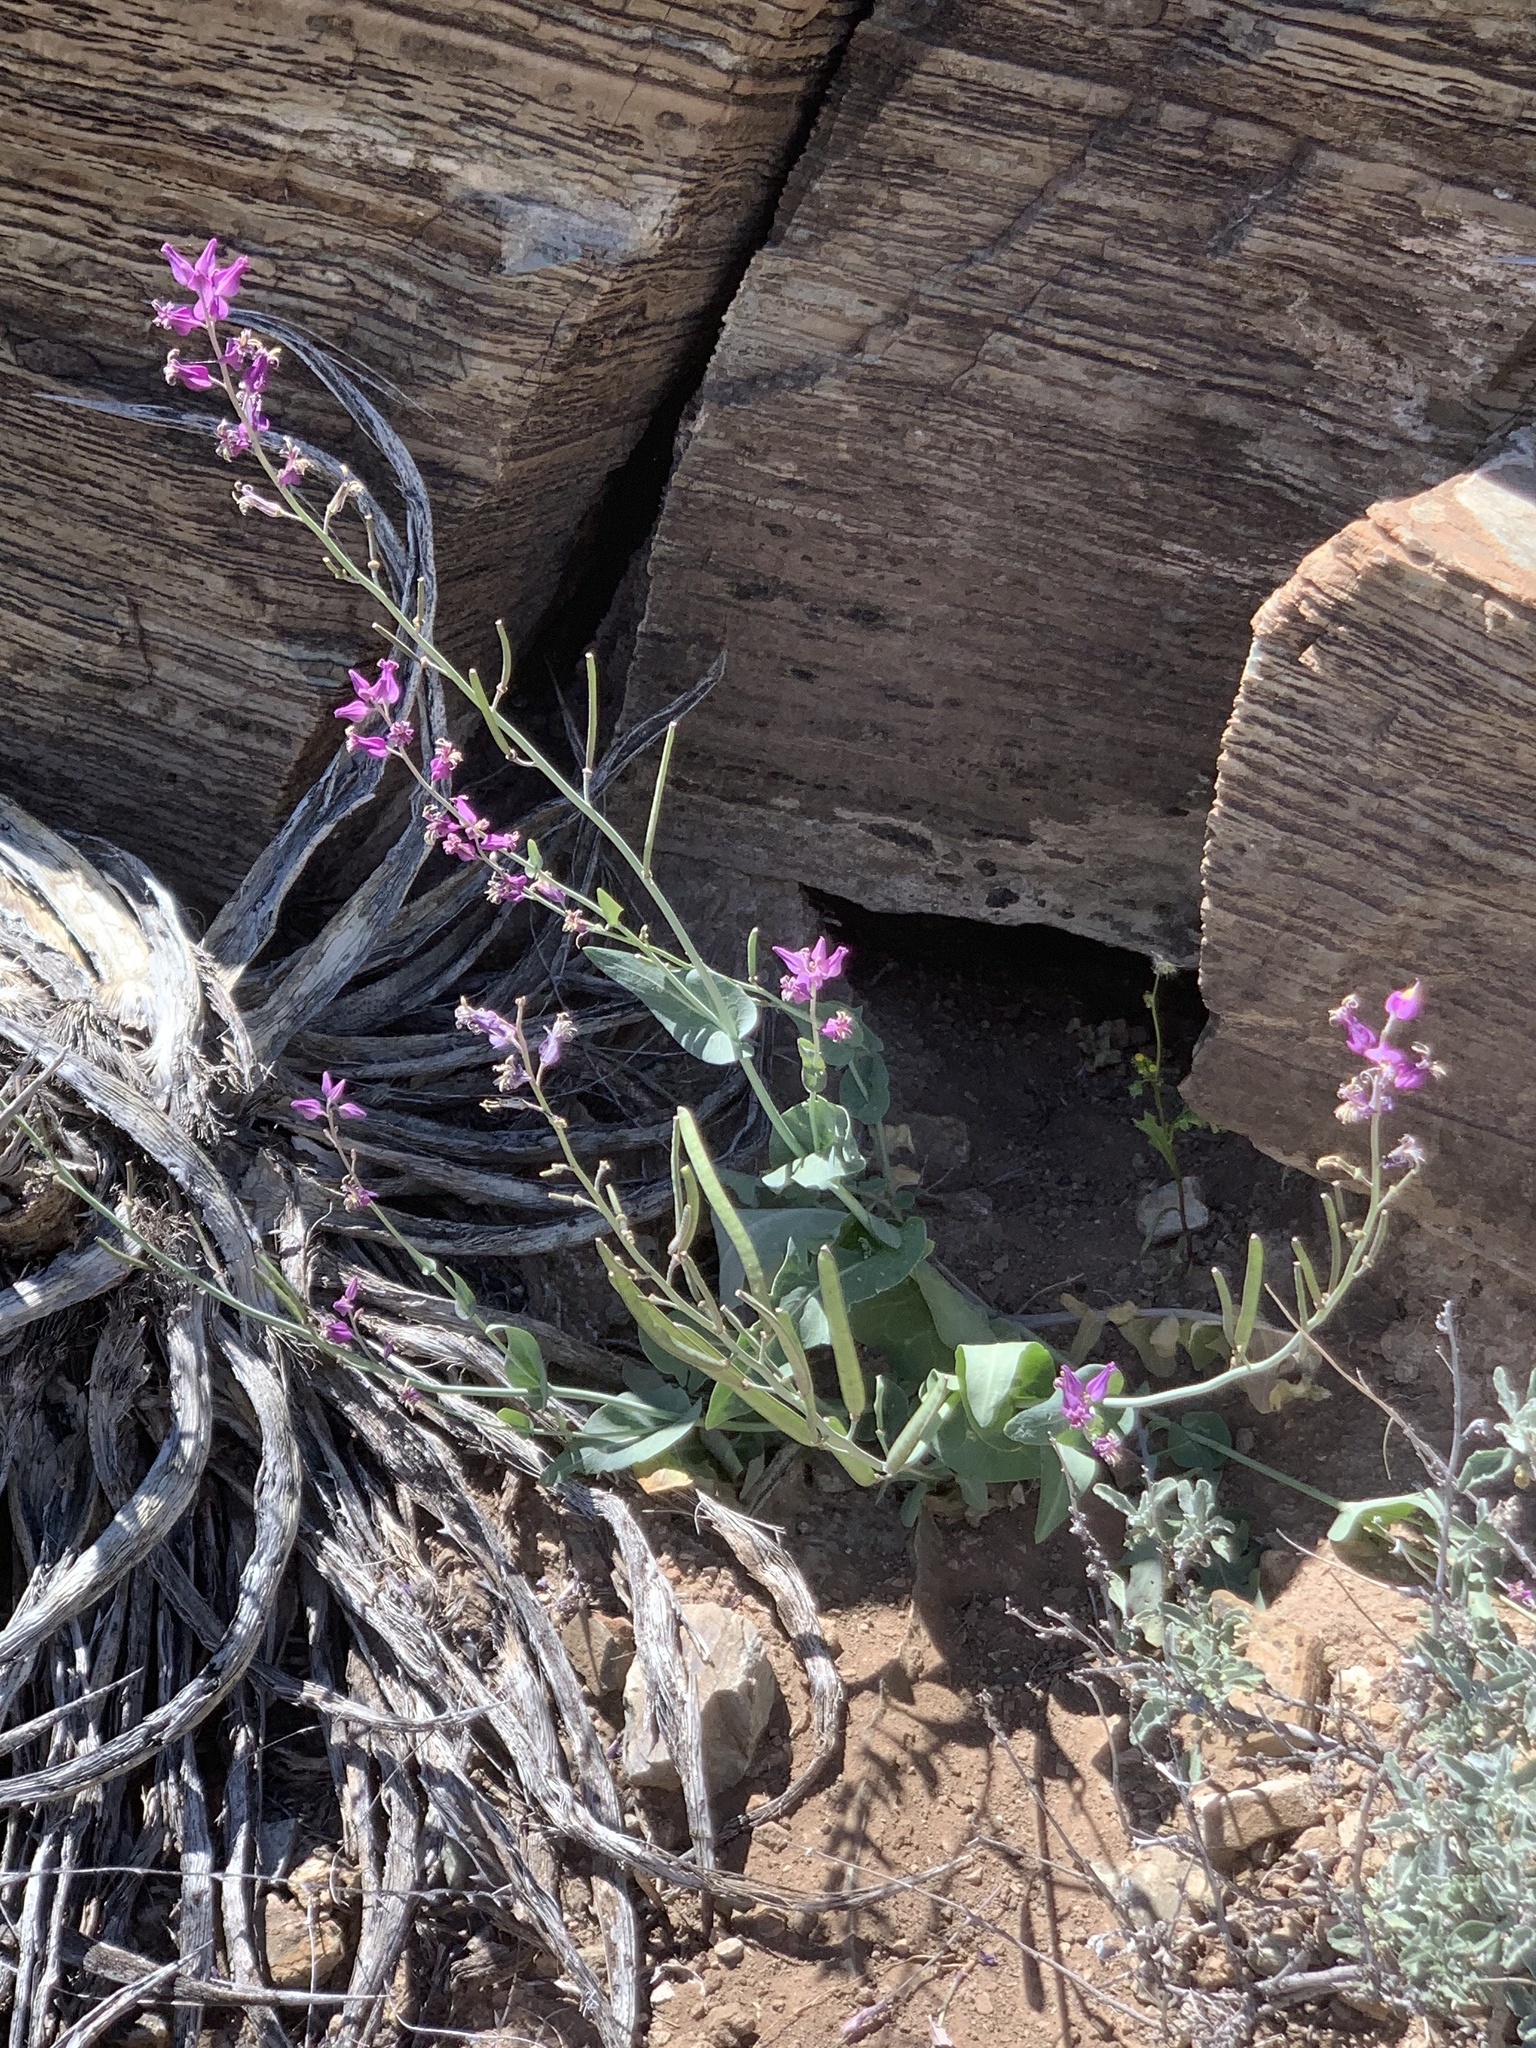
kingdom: Plantae
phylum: Tracheophyta
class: Magnoliopsida
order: Brassicales
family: Brassicaceae
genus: Streptanthus
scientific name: Streptanthus carinatus
